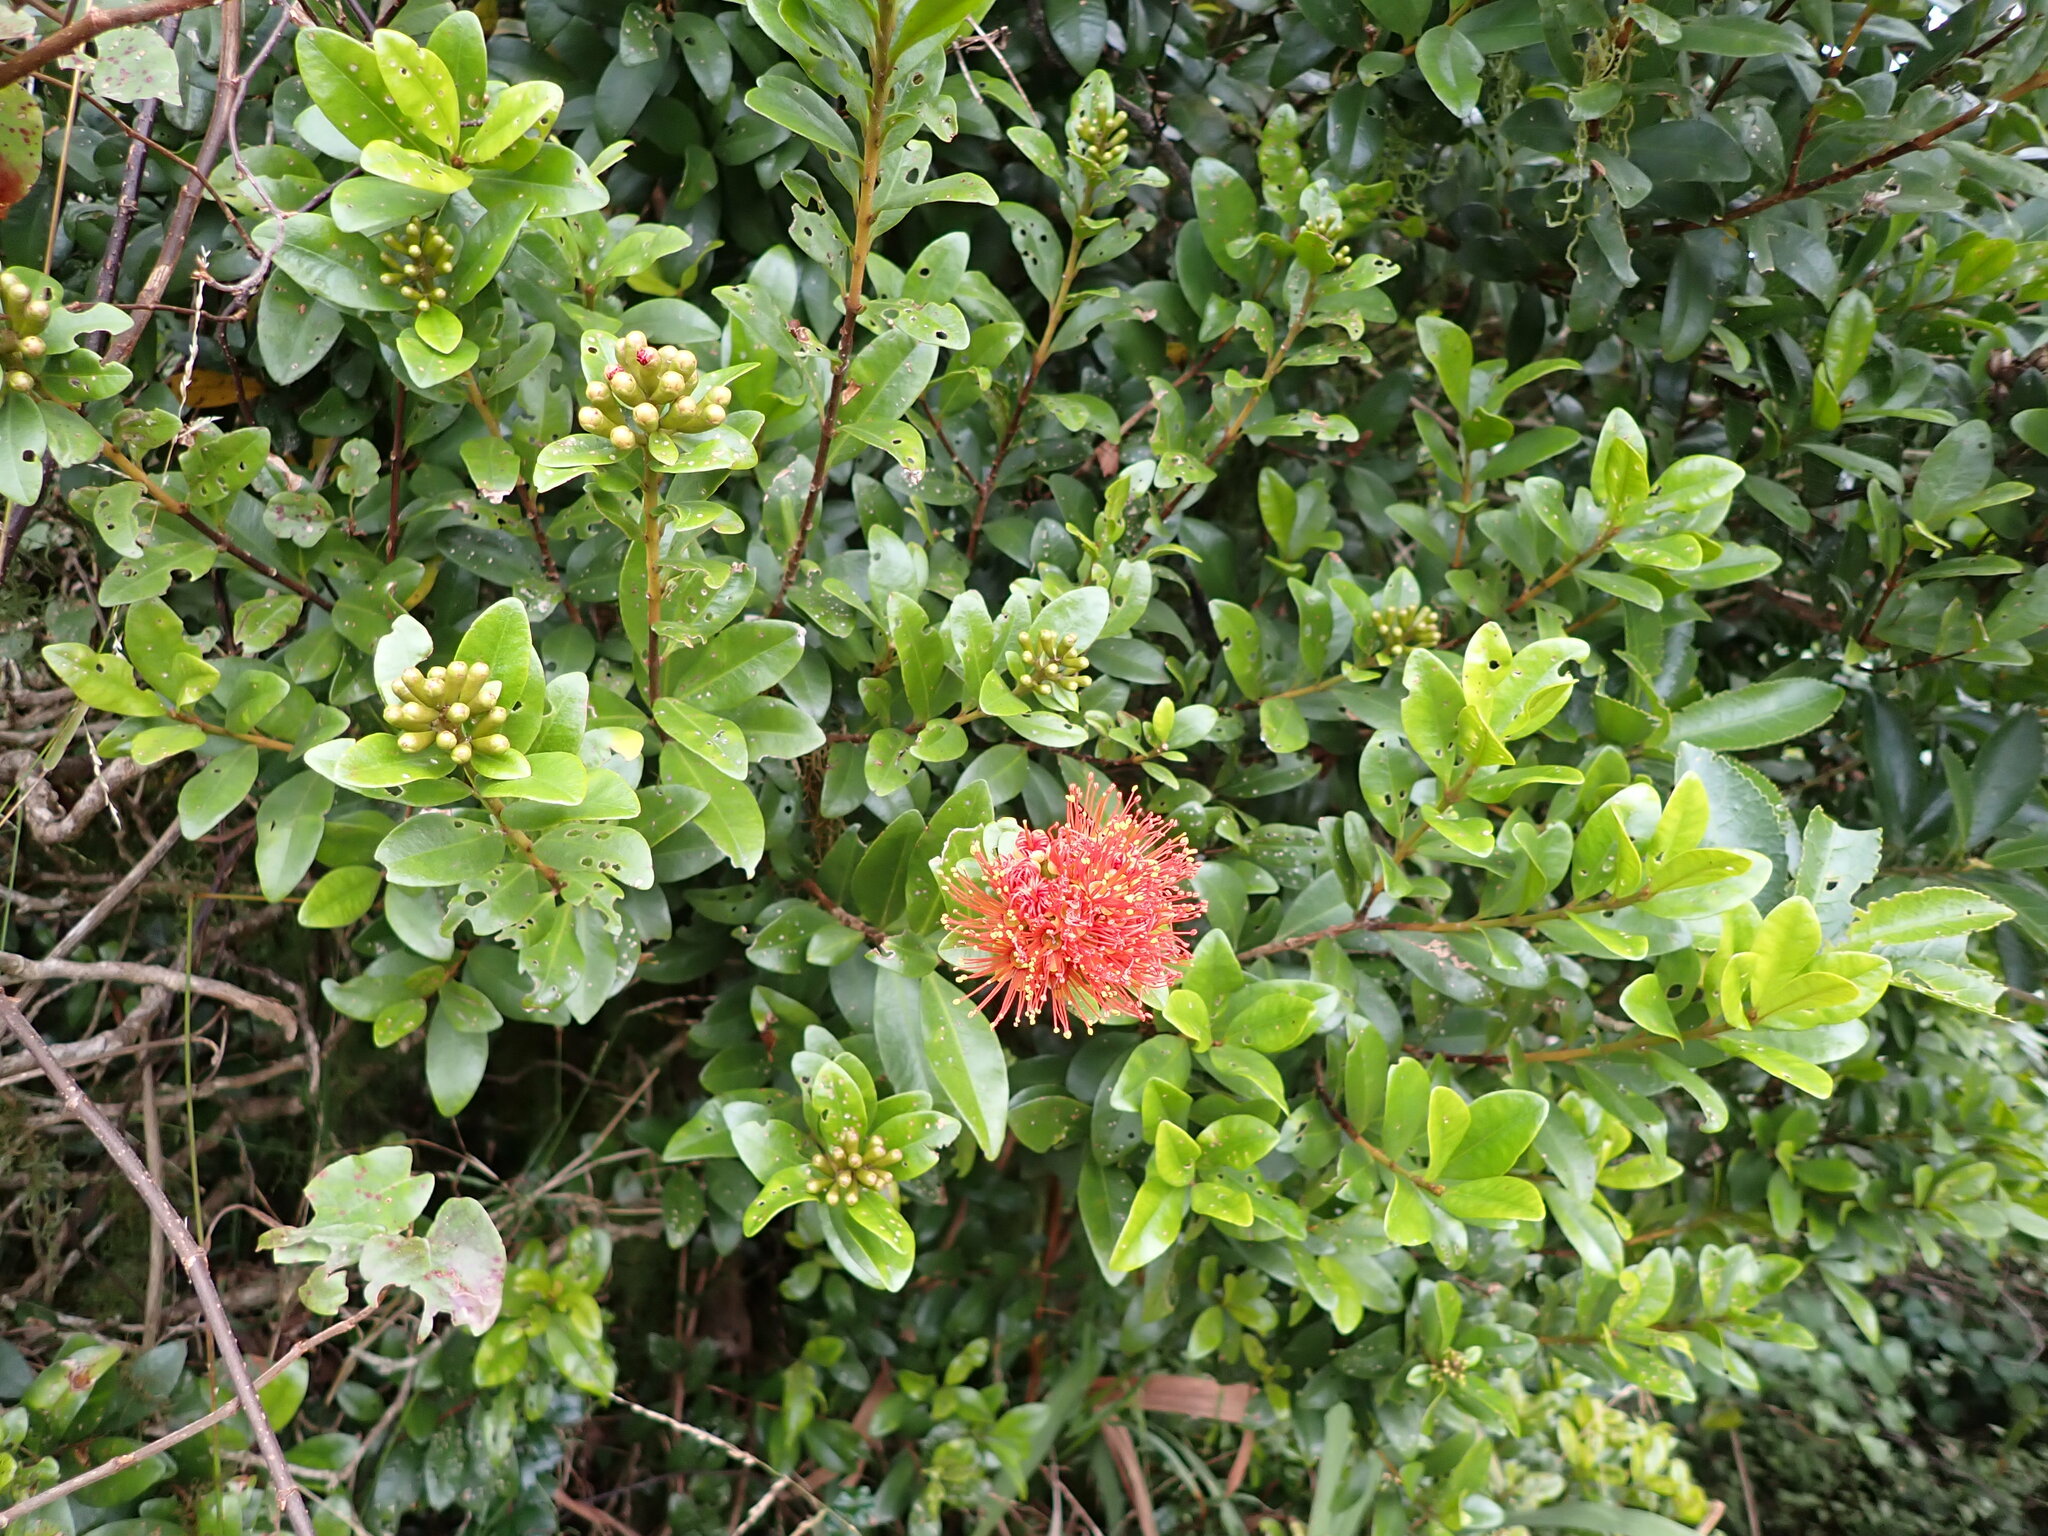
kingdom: Plantae
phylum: Tracheophyta
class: Magnoliopsida
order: Myrtales
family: Myrtaceae
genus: Metrosideros
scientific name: Metrosideros fulgens
